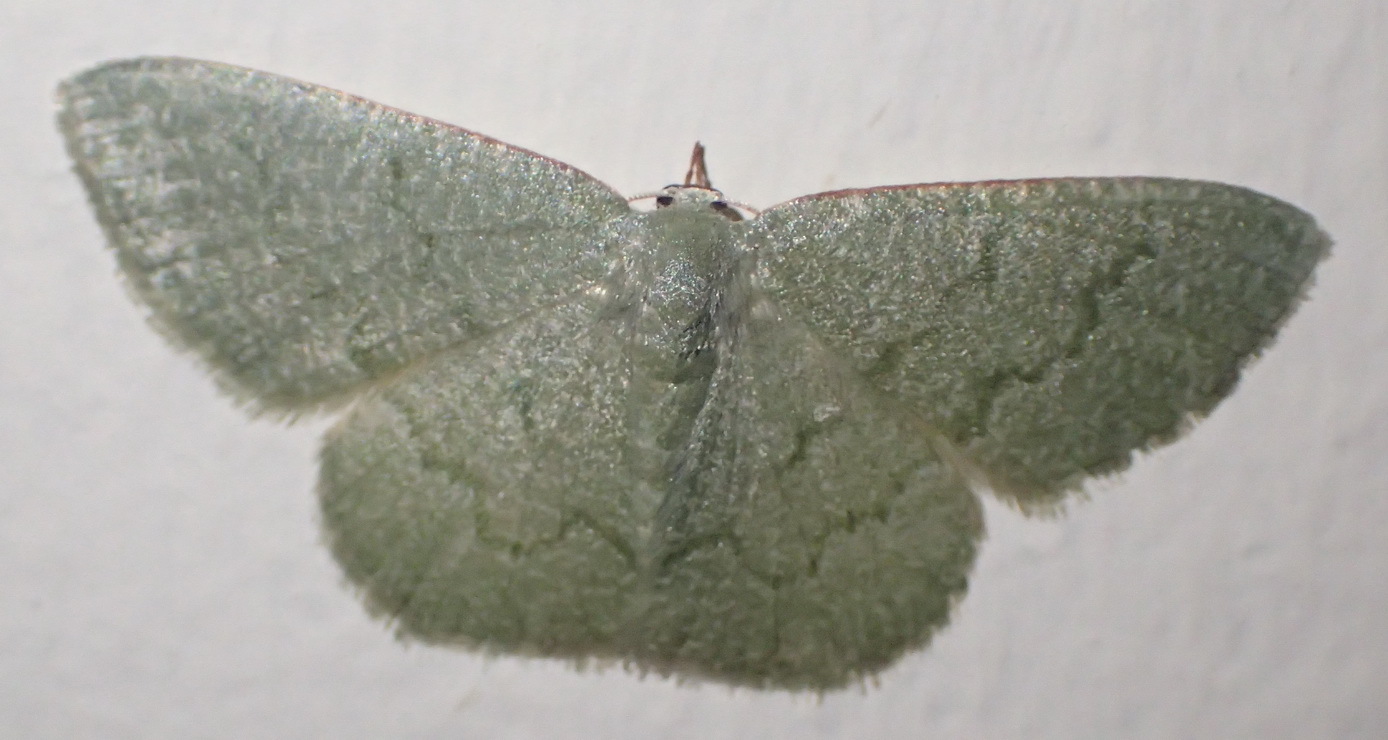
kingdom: Animalia
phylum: Arthropoda
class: Insecta
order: Lepidoptera
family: Geometridae
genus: Chlorissa
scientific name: Chlorissa albistrigulata
